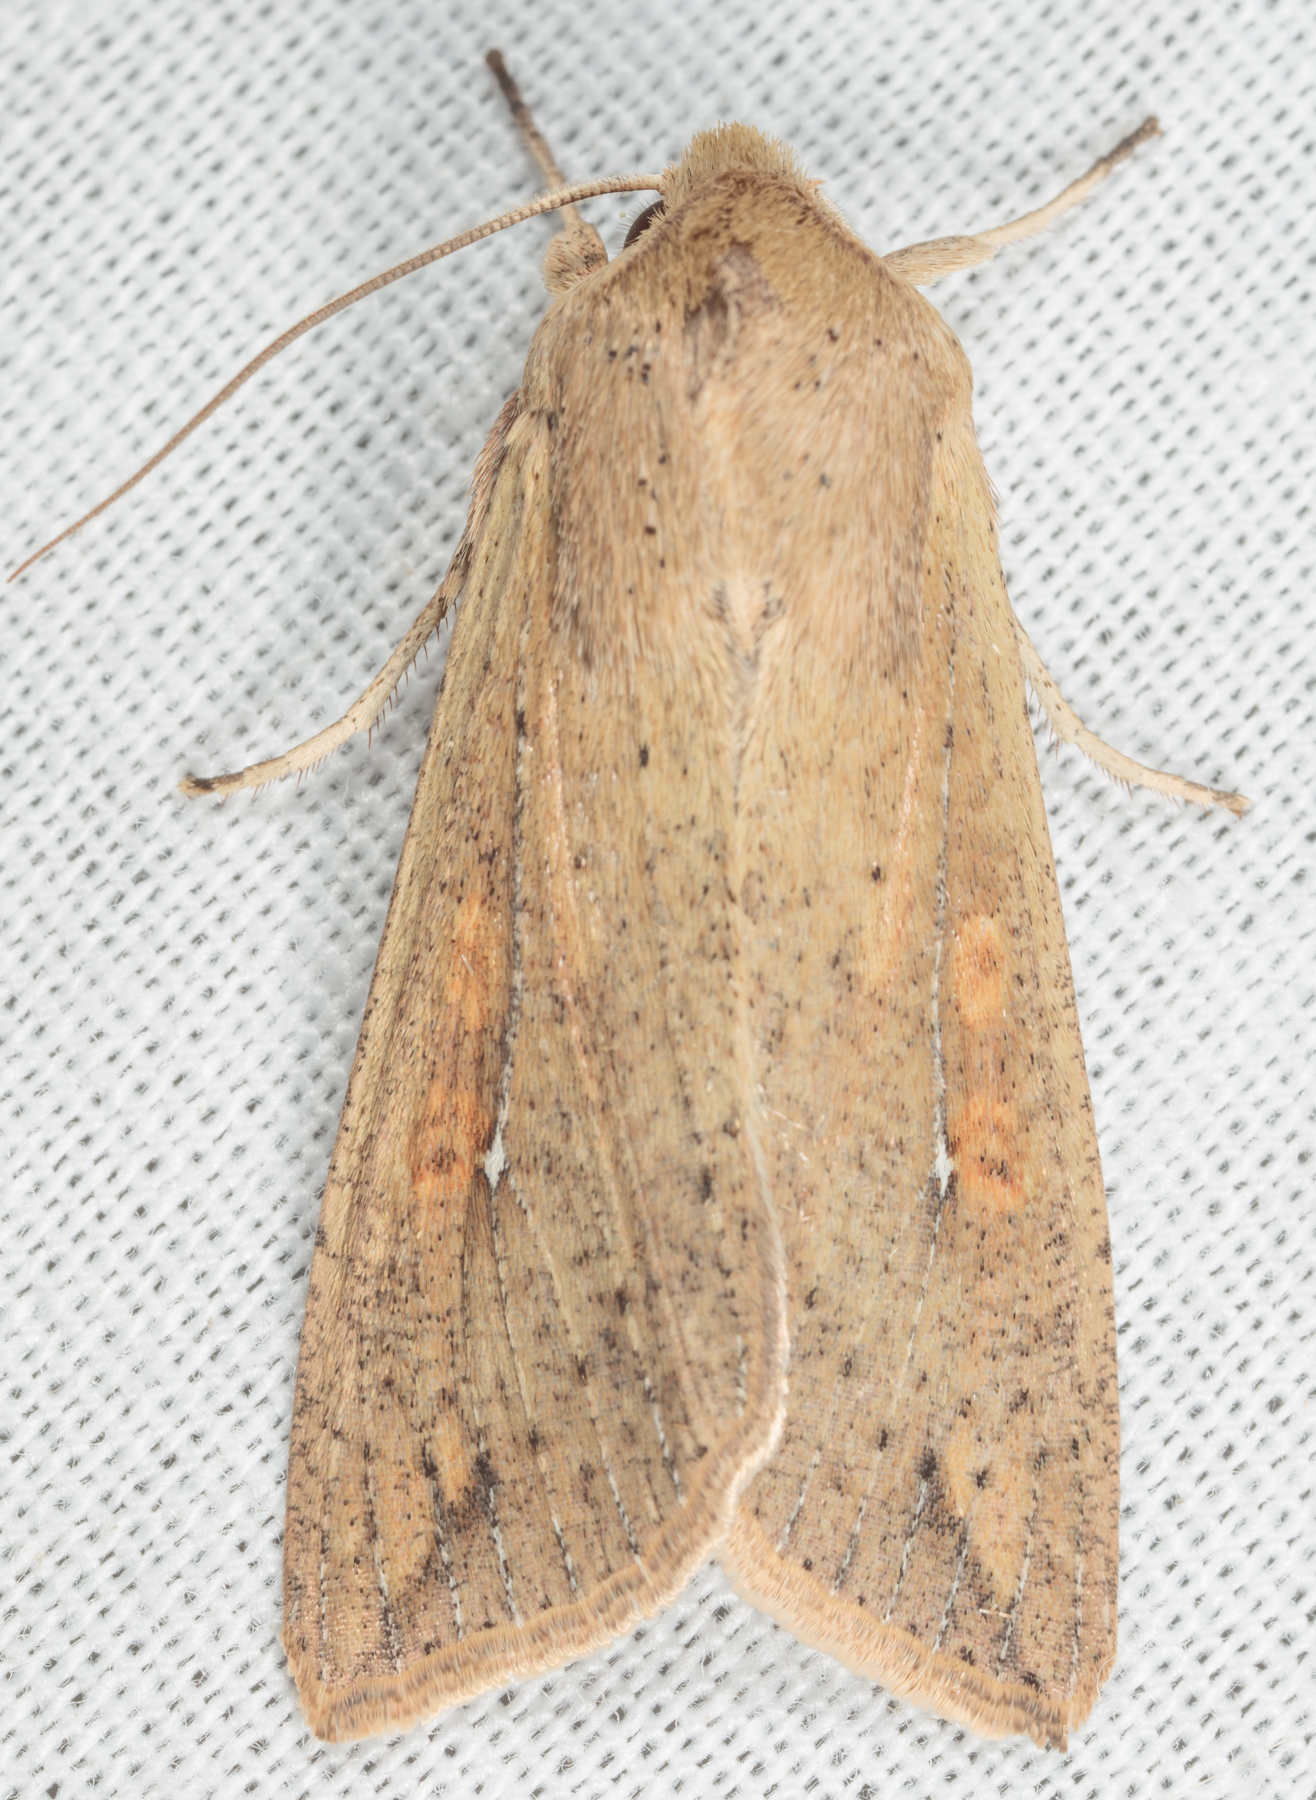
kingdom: Animalia
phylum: Arthropoda
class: Insecta
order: Lepidoptera
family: Noctuidae
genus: Mythimna
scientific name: Mythimna unipuncta
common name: White-speck
